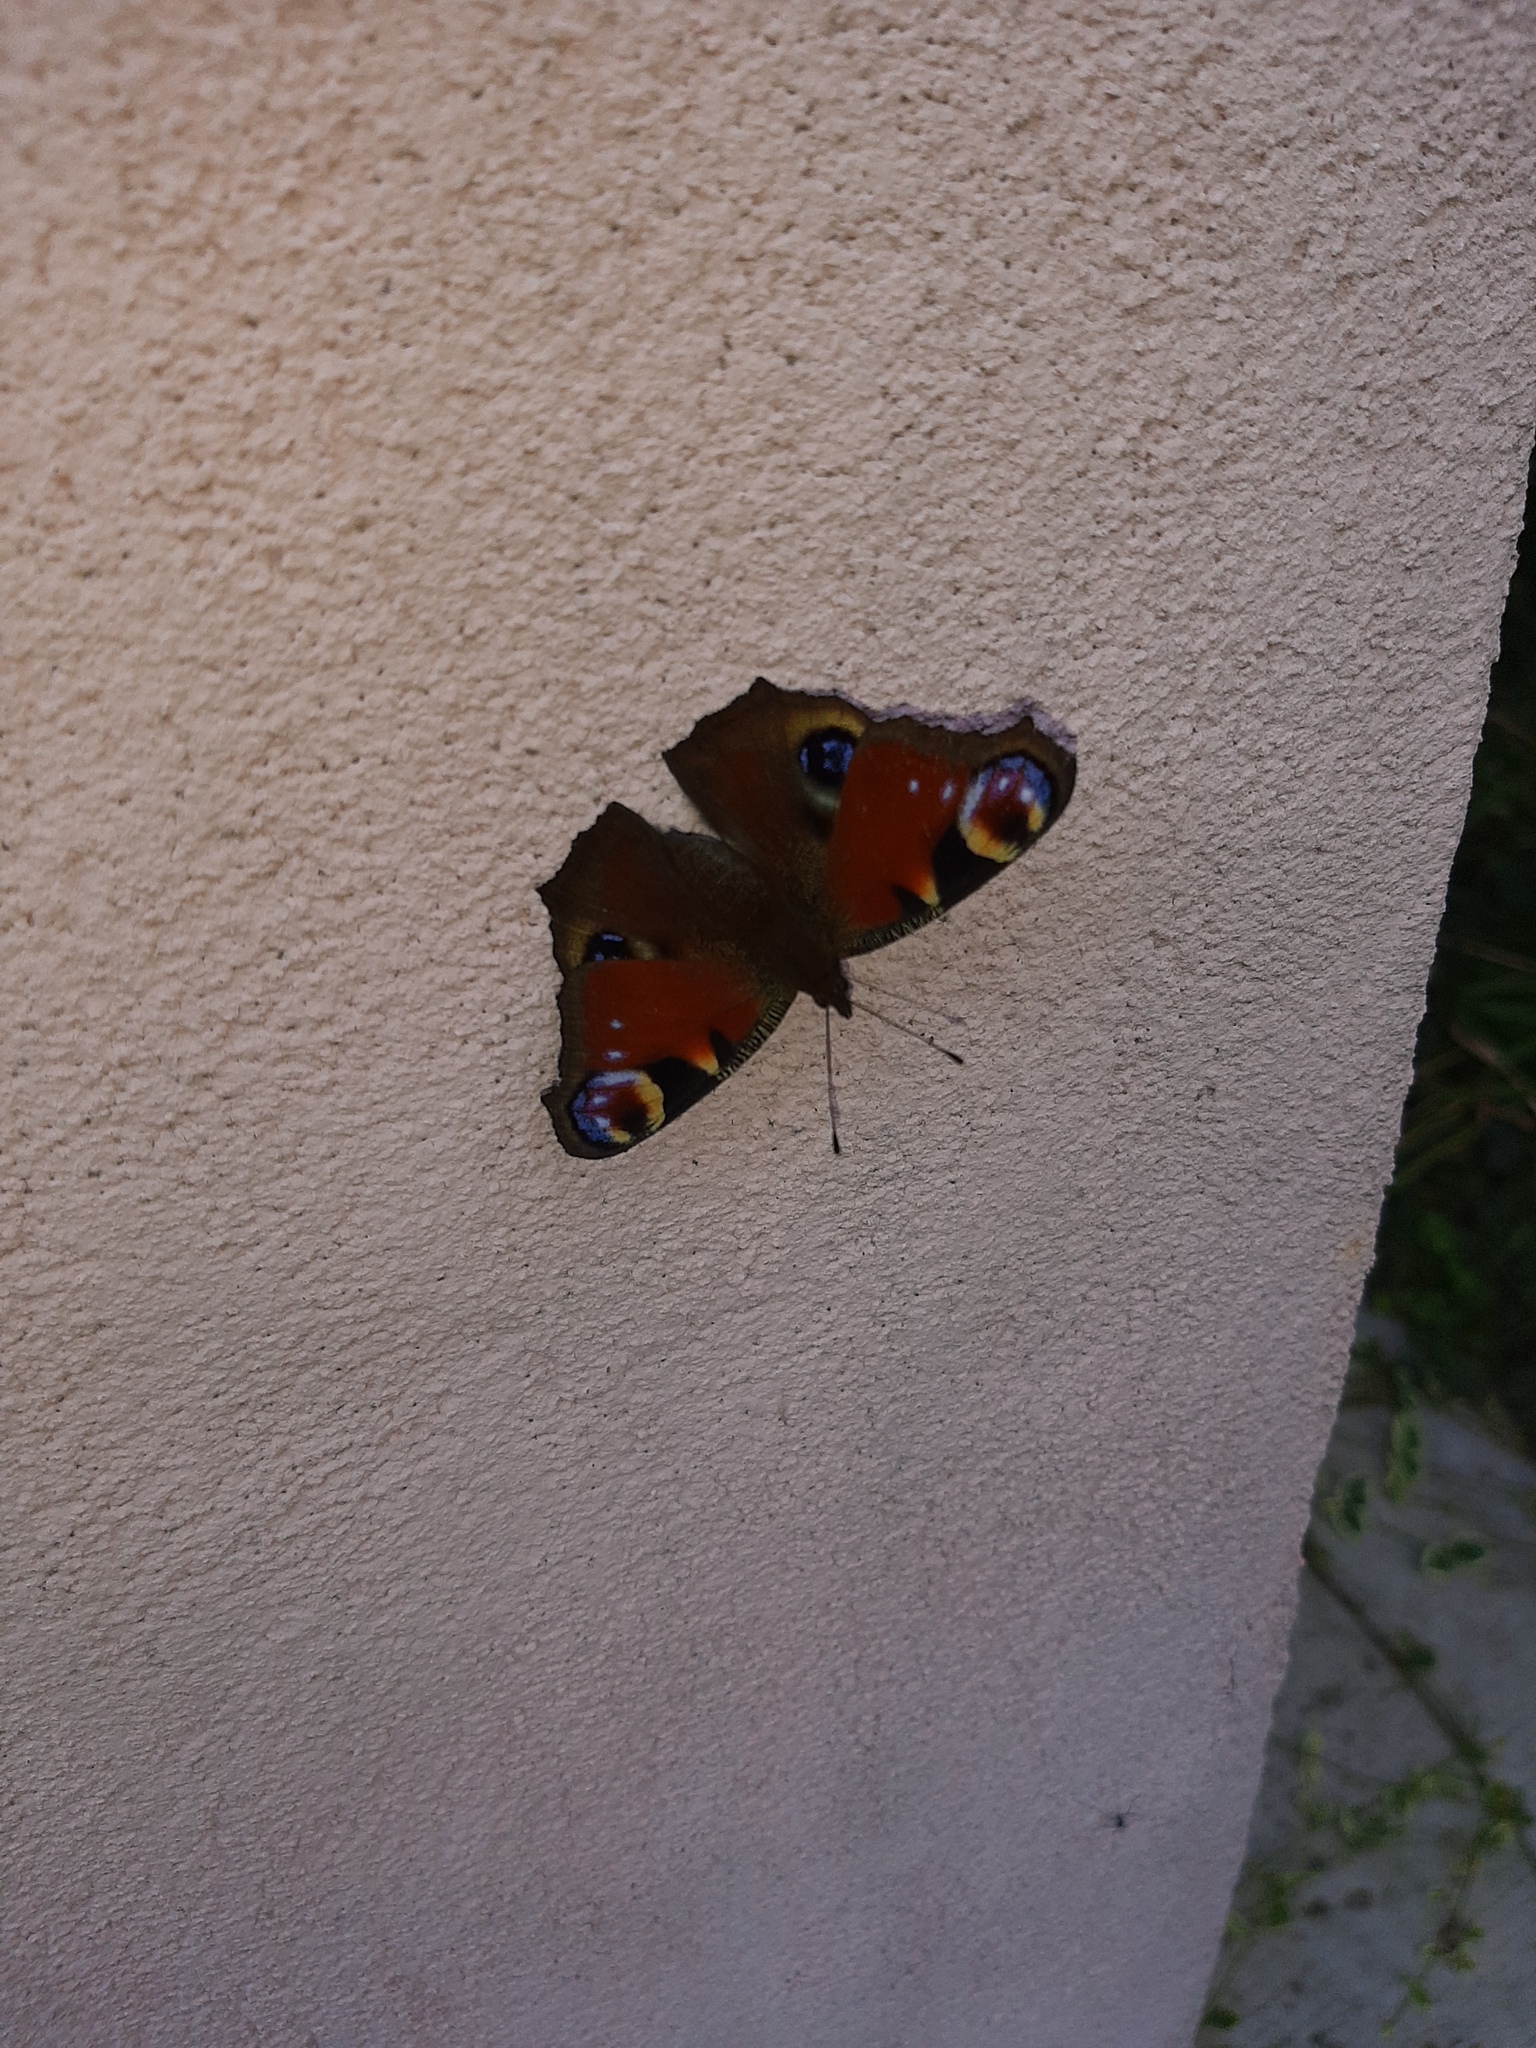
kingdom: Animalia
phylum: Arthropoda
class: Insecta
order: Lepidoptera
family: Nymphalidae
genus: Aglais
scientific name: Aglais io
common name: Peacock
